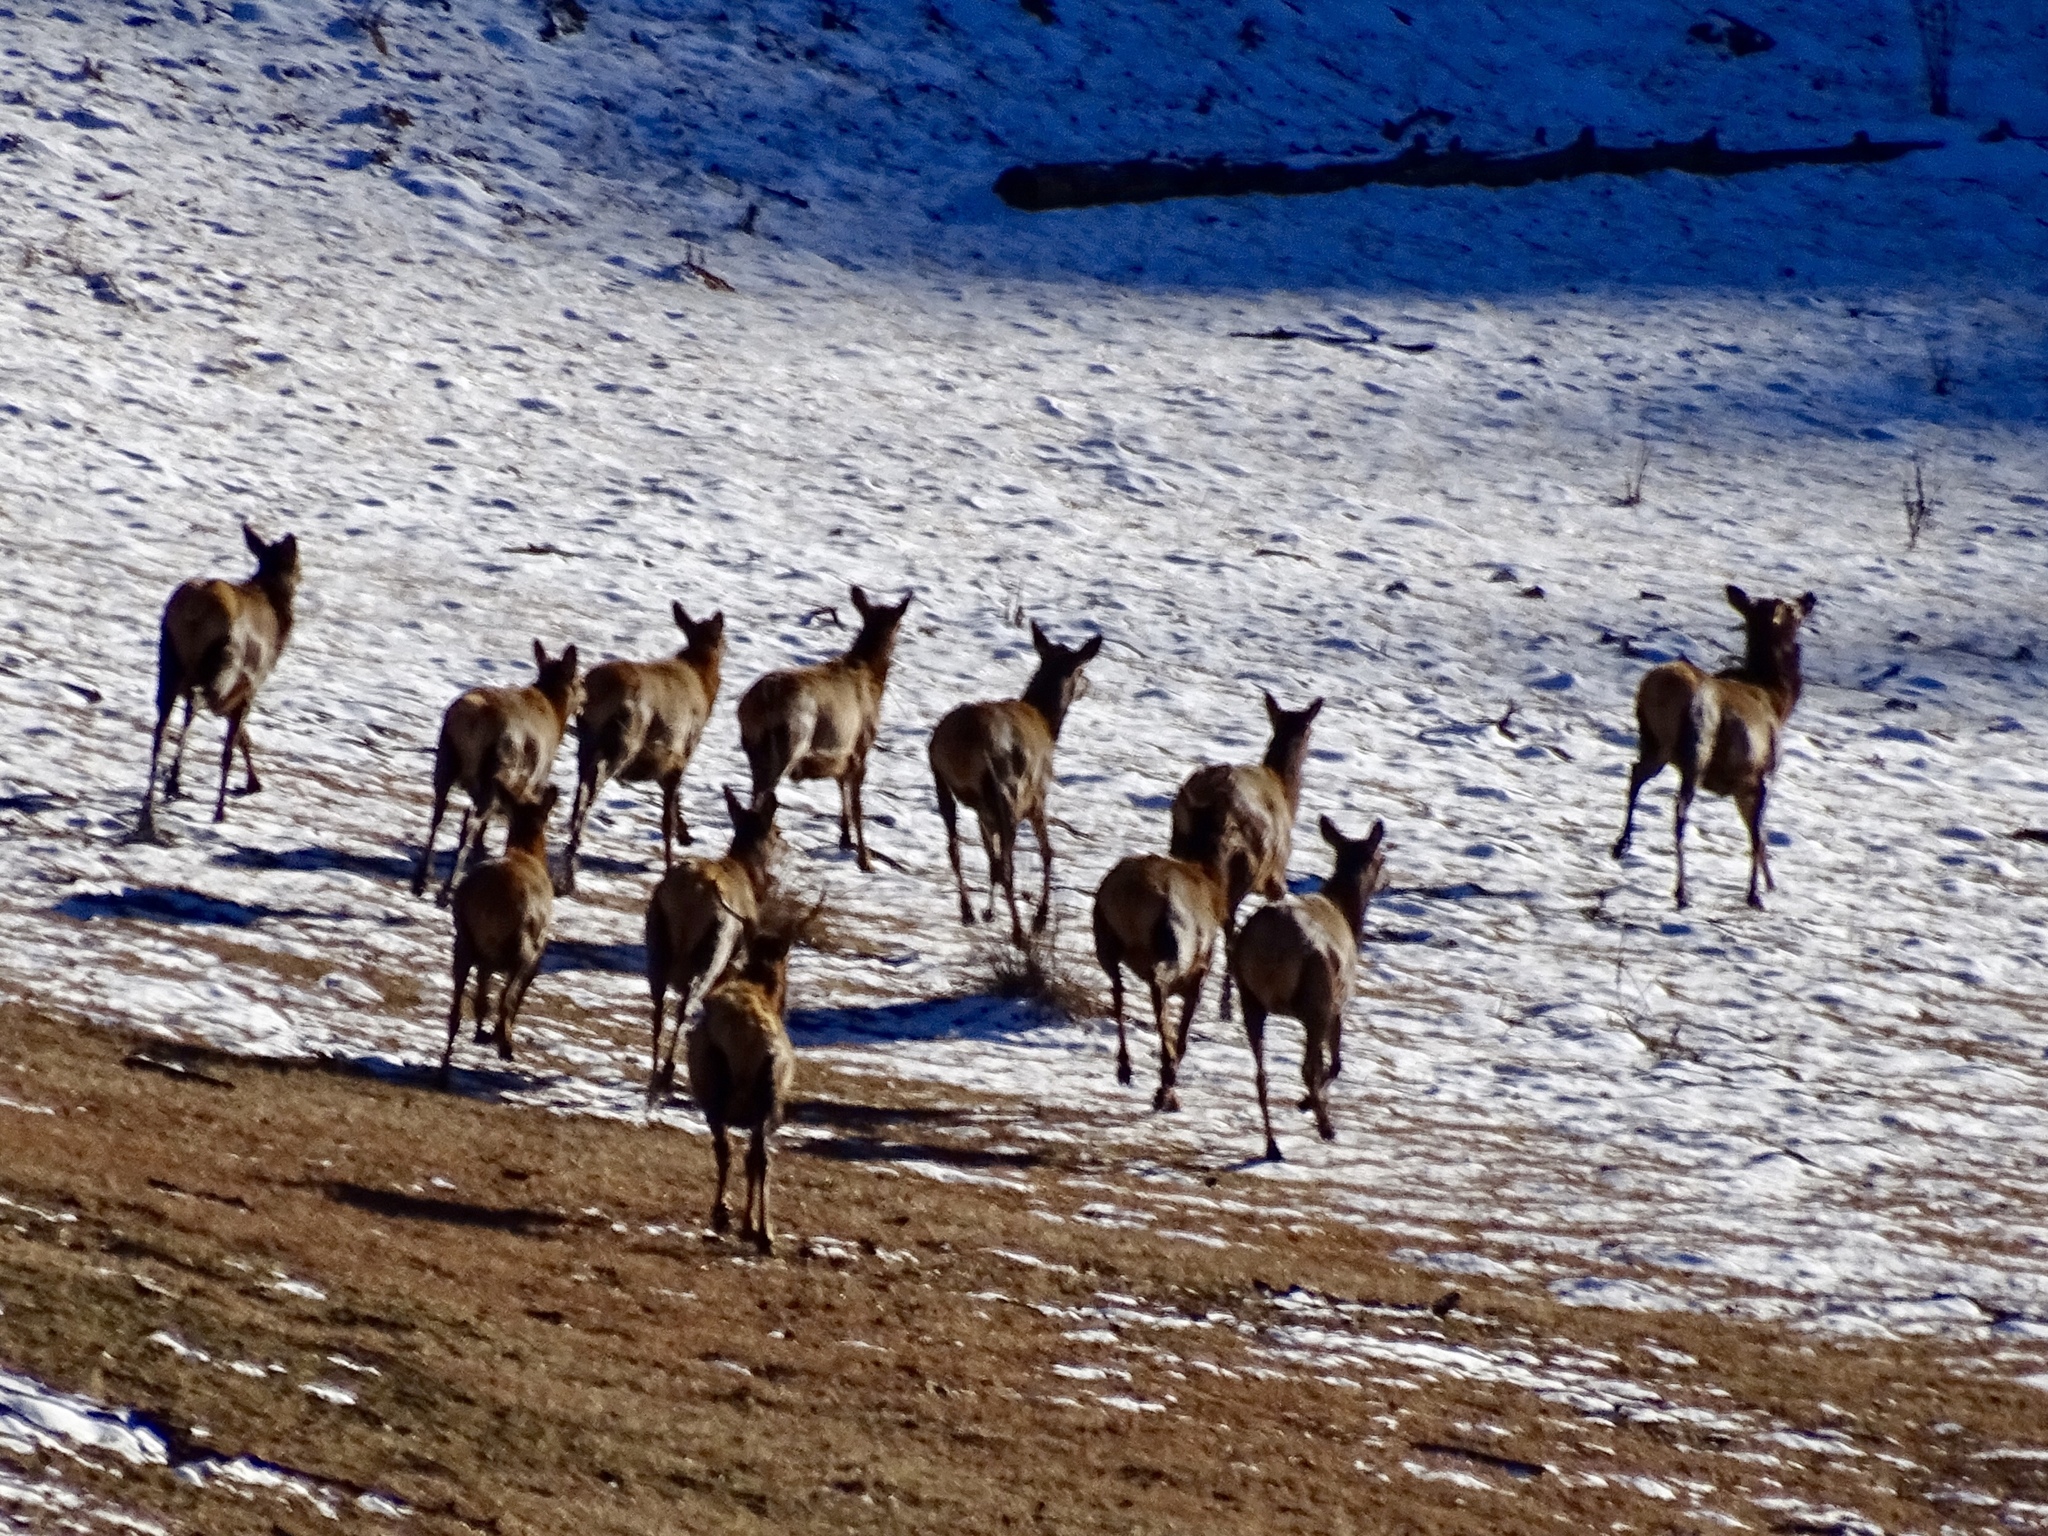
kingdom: Animalia
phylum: Chordata
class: Mammalia
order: Artiodactyla
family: Cervidae
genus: Cervus
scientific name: Cervus elaphus
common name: Red deer
